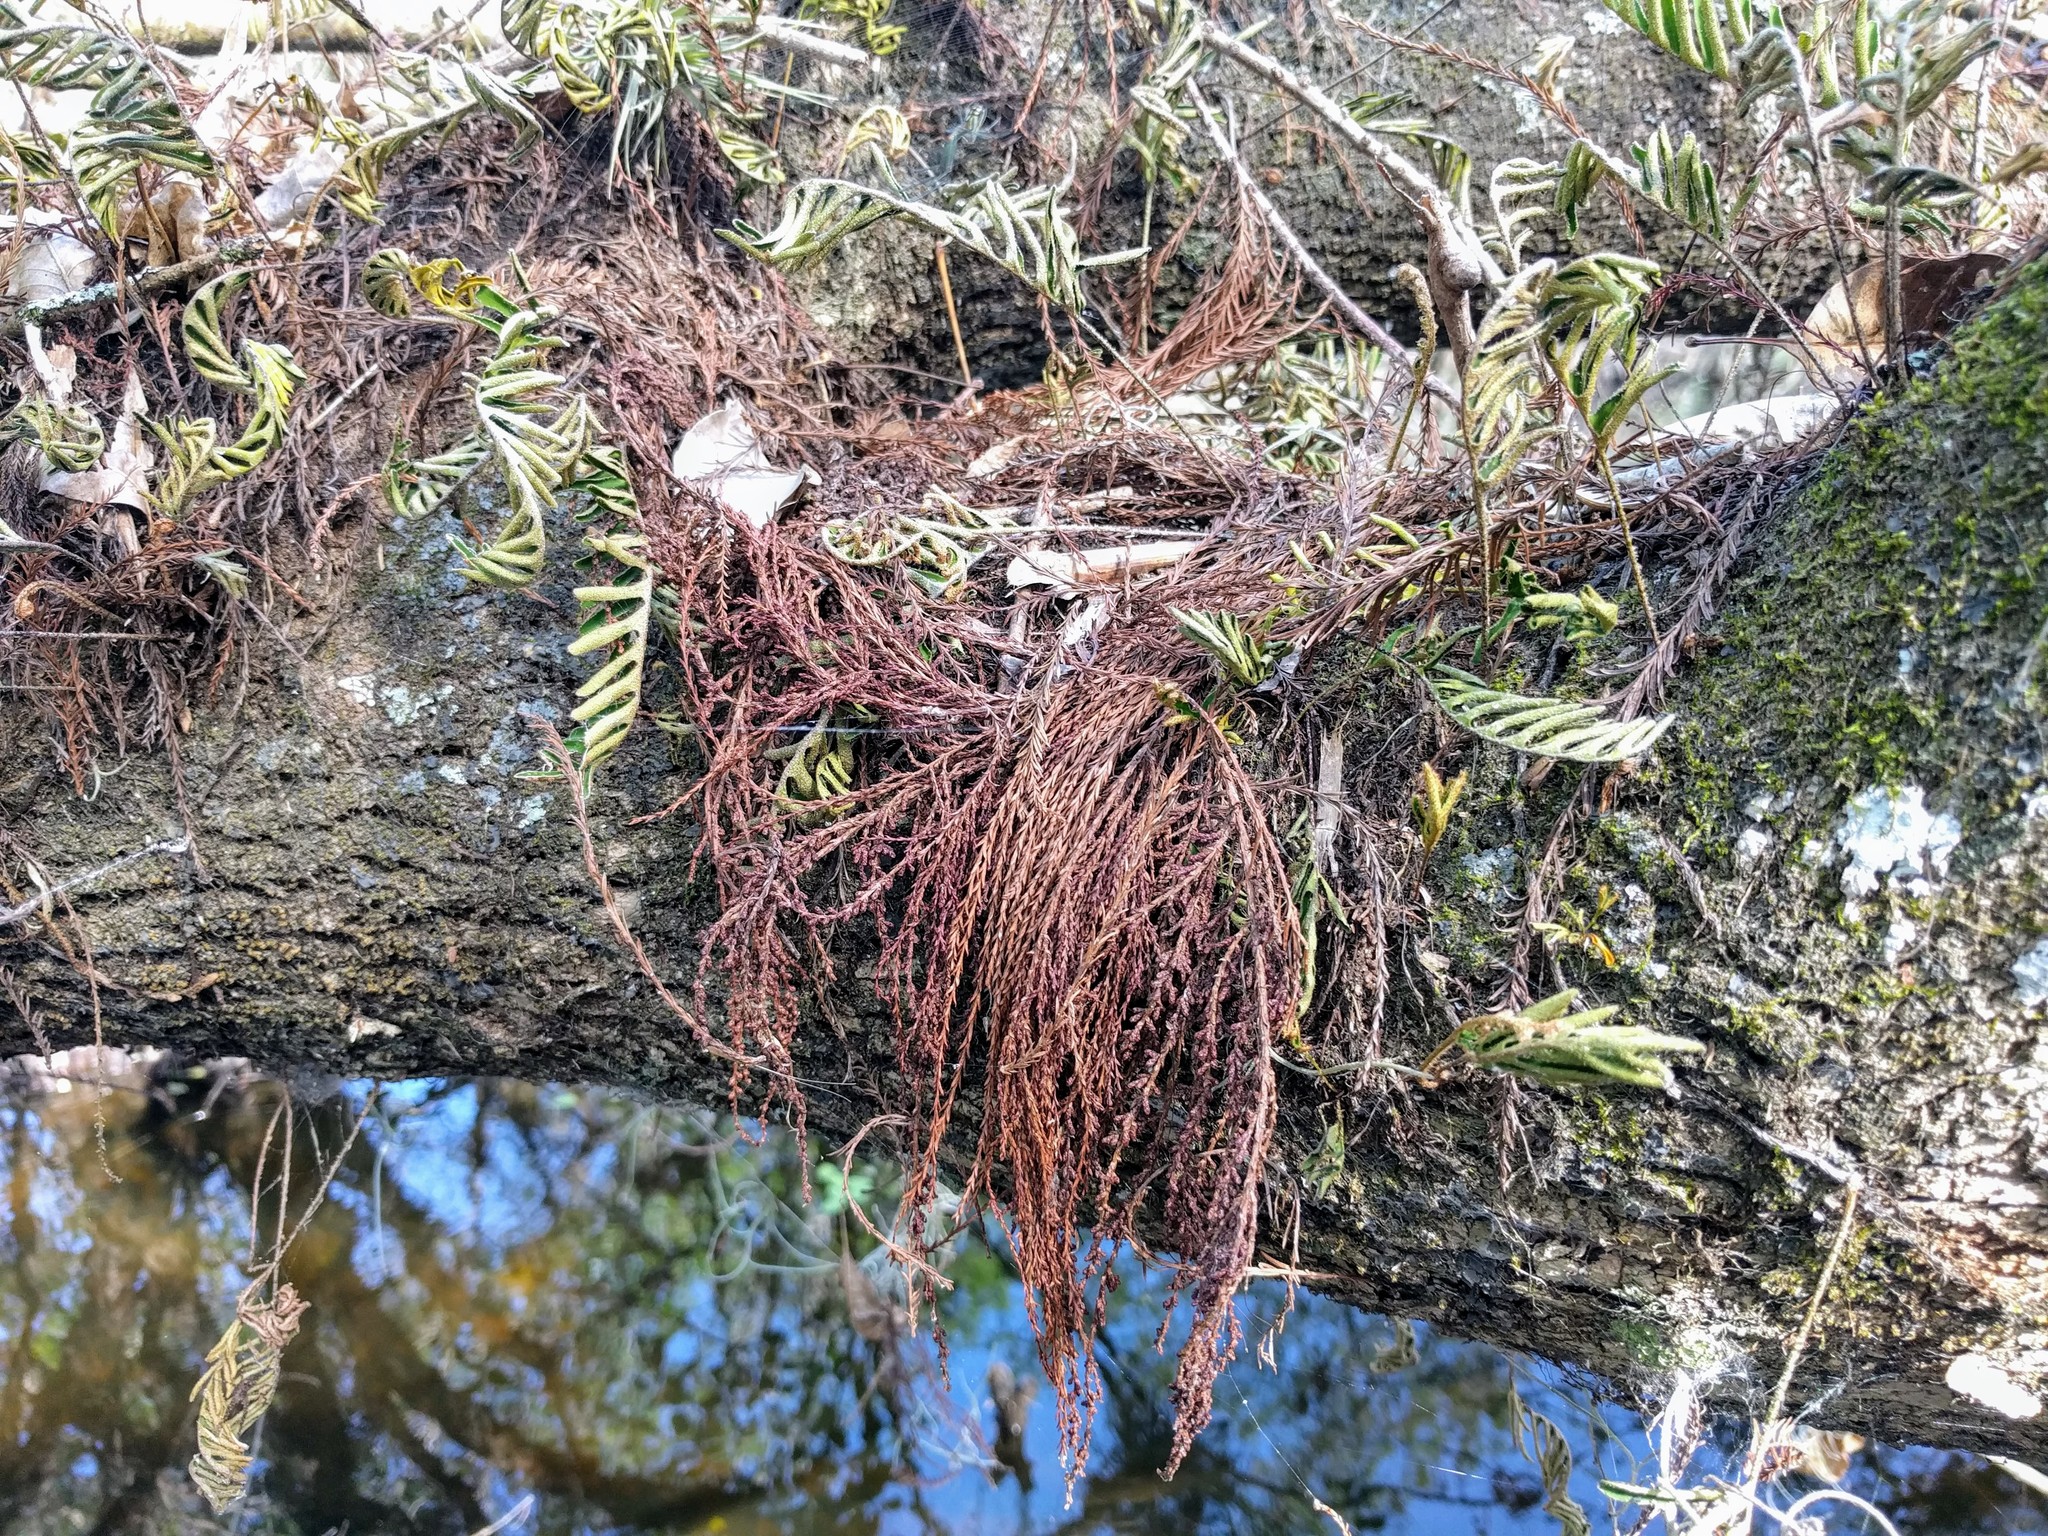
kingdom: Plantae
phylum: Tracheophyta
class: Polypodiopsida
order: Polypodiales
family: Polypodiaceae
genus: Pleopeltis
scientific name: Pleopeltis michauxiana
